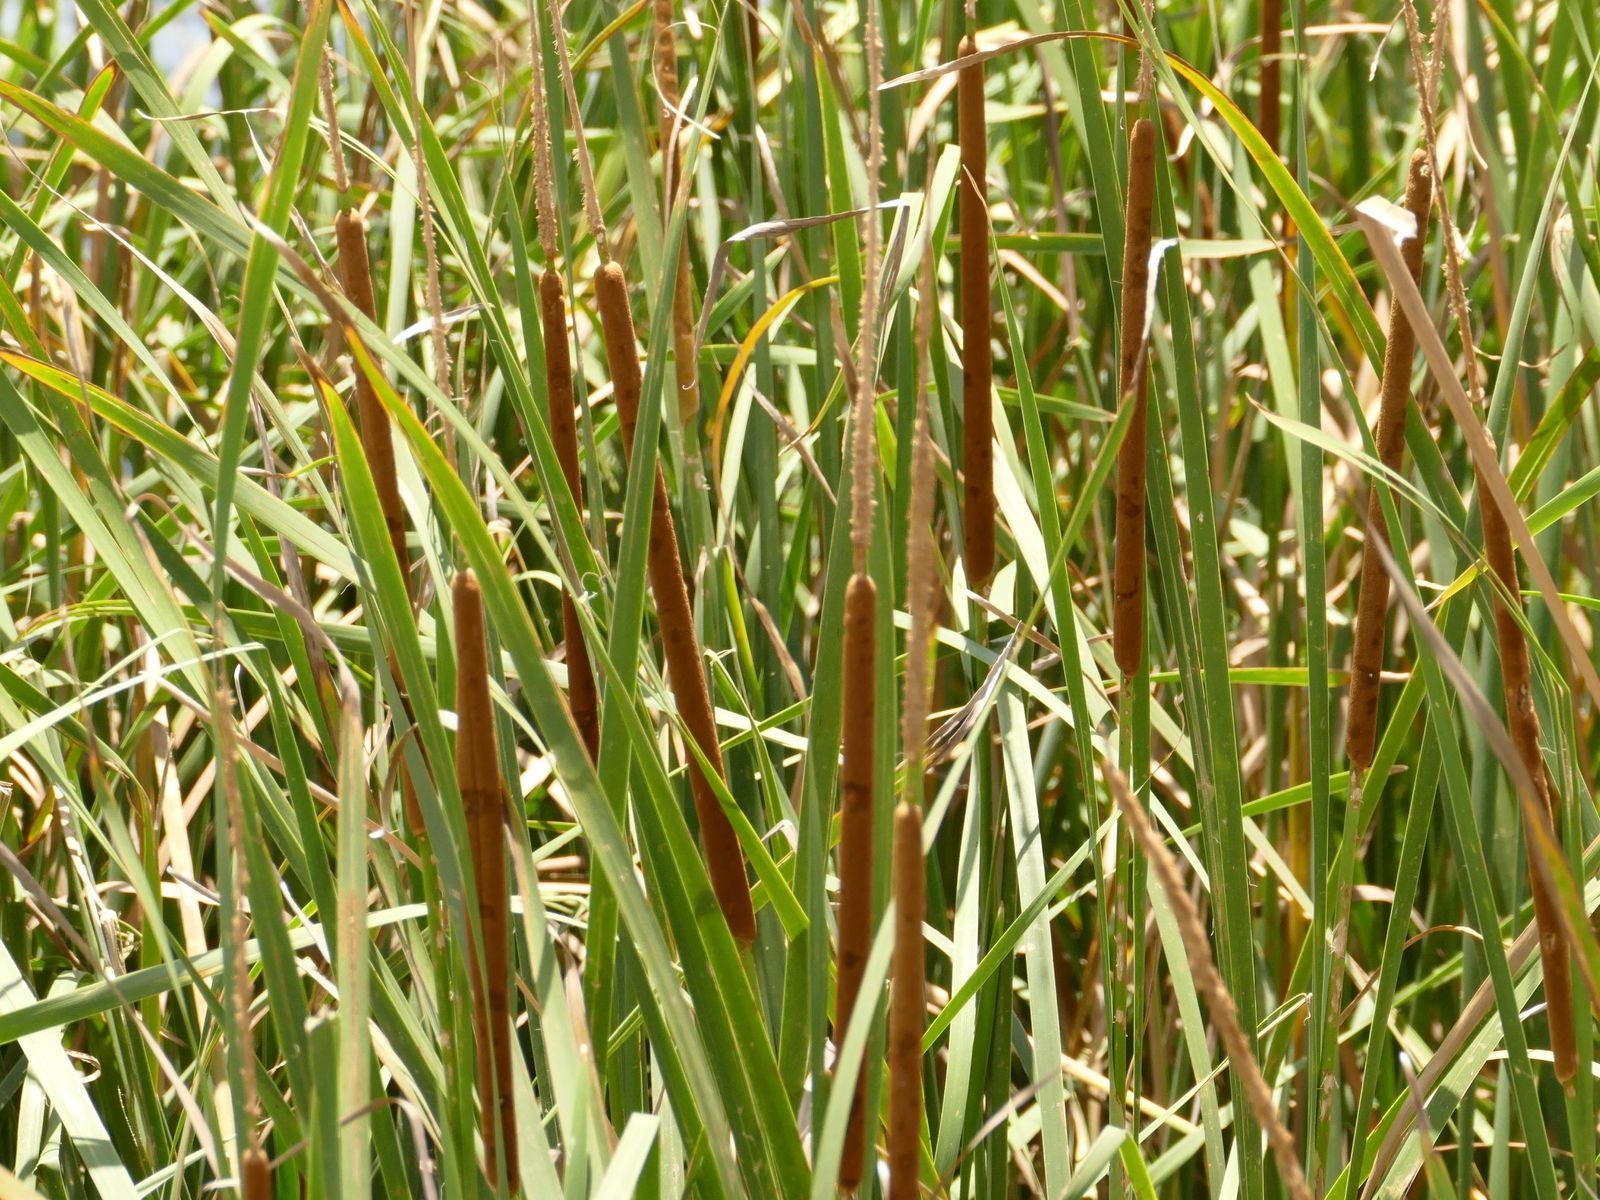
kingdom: Plantae
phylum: Tracheophyta
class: Liliopsida
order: Poales
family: Typhaceae
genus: Typha
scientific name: Typha domingensis
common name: Southern cattail
